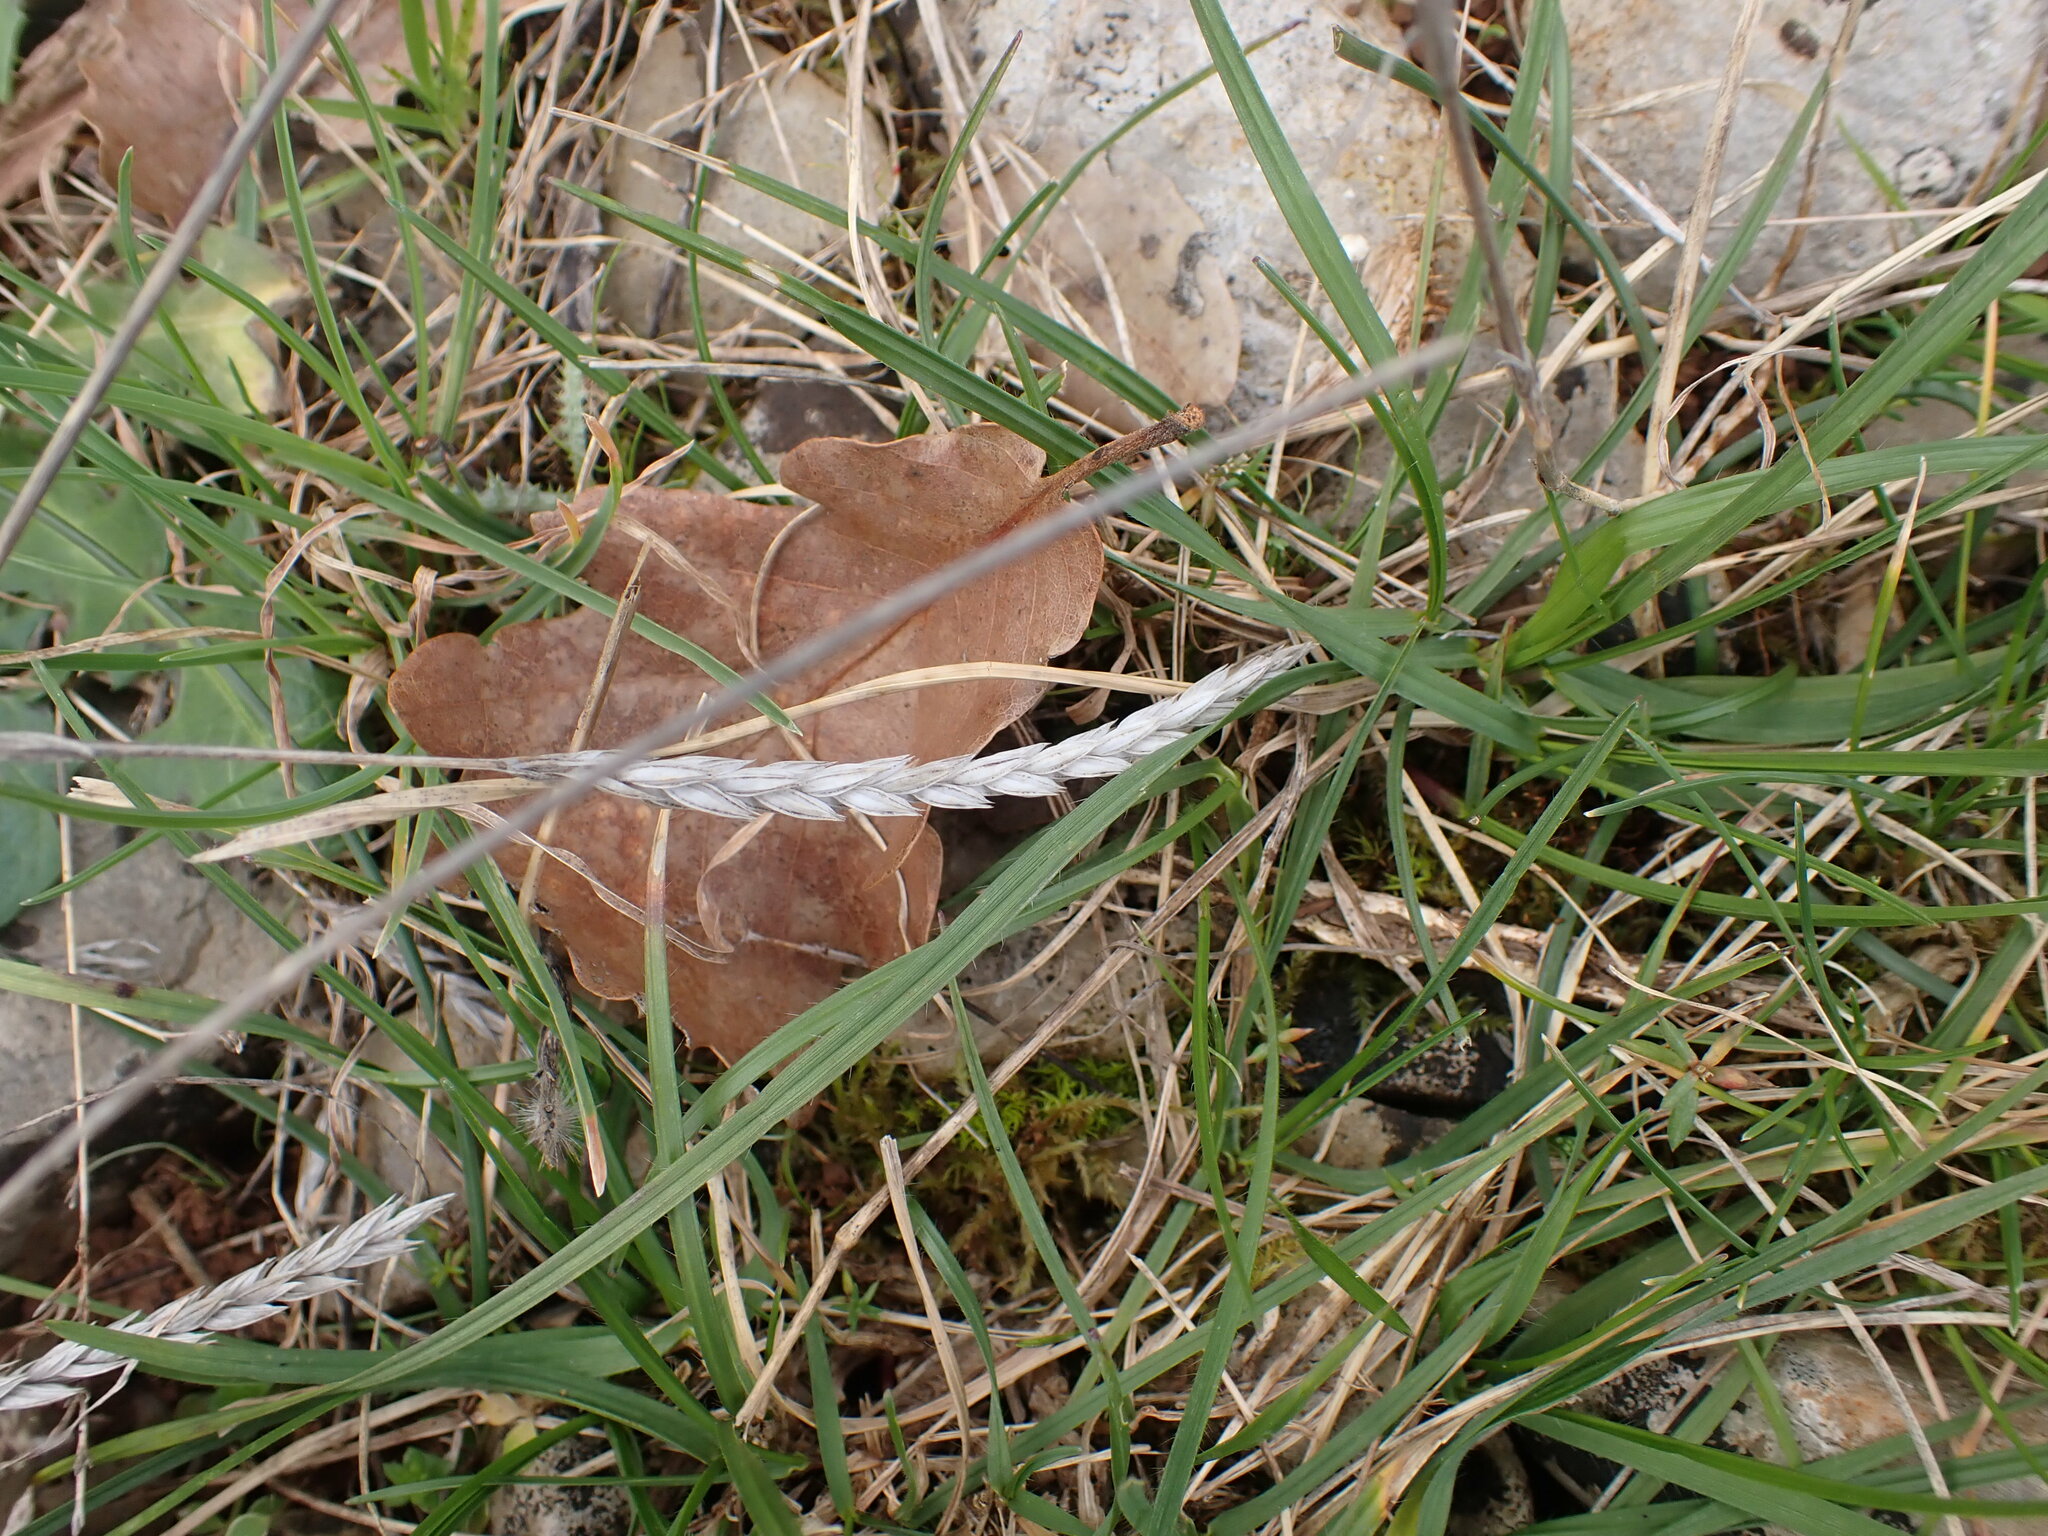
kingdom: Plantae
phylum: Tracheophyta
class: Magnoliopsida
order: Gentianales
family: Rubiaceae
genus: Crucianella
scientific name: Crucianella angustifolia
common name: Narrowleaf crucianella
